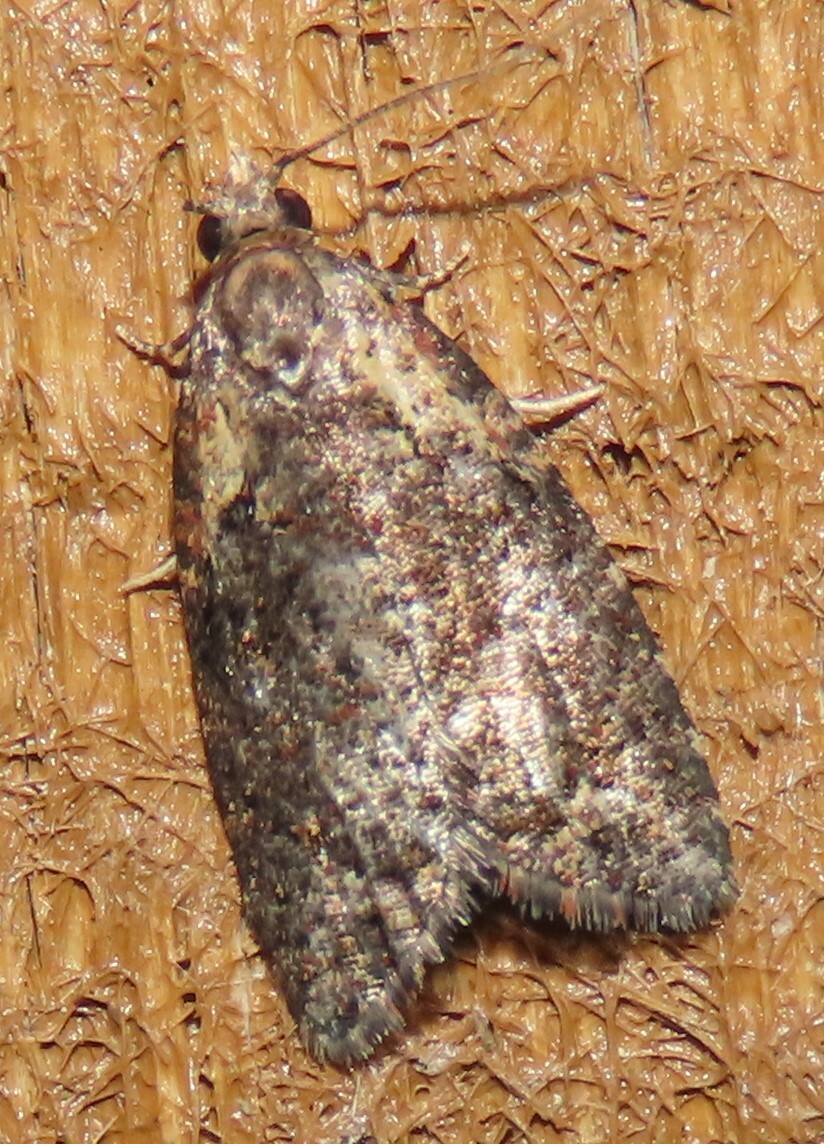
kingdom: Animalia
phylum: Arthropoda
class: Insecta
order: Lepidoptera
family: Tortricidae
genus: Capua
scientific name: Capua intractana
